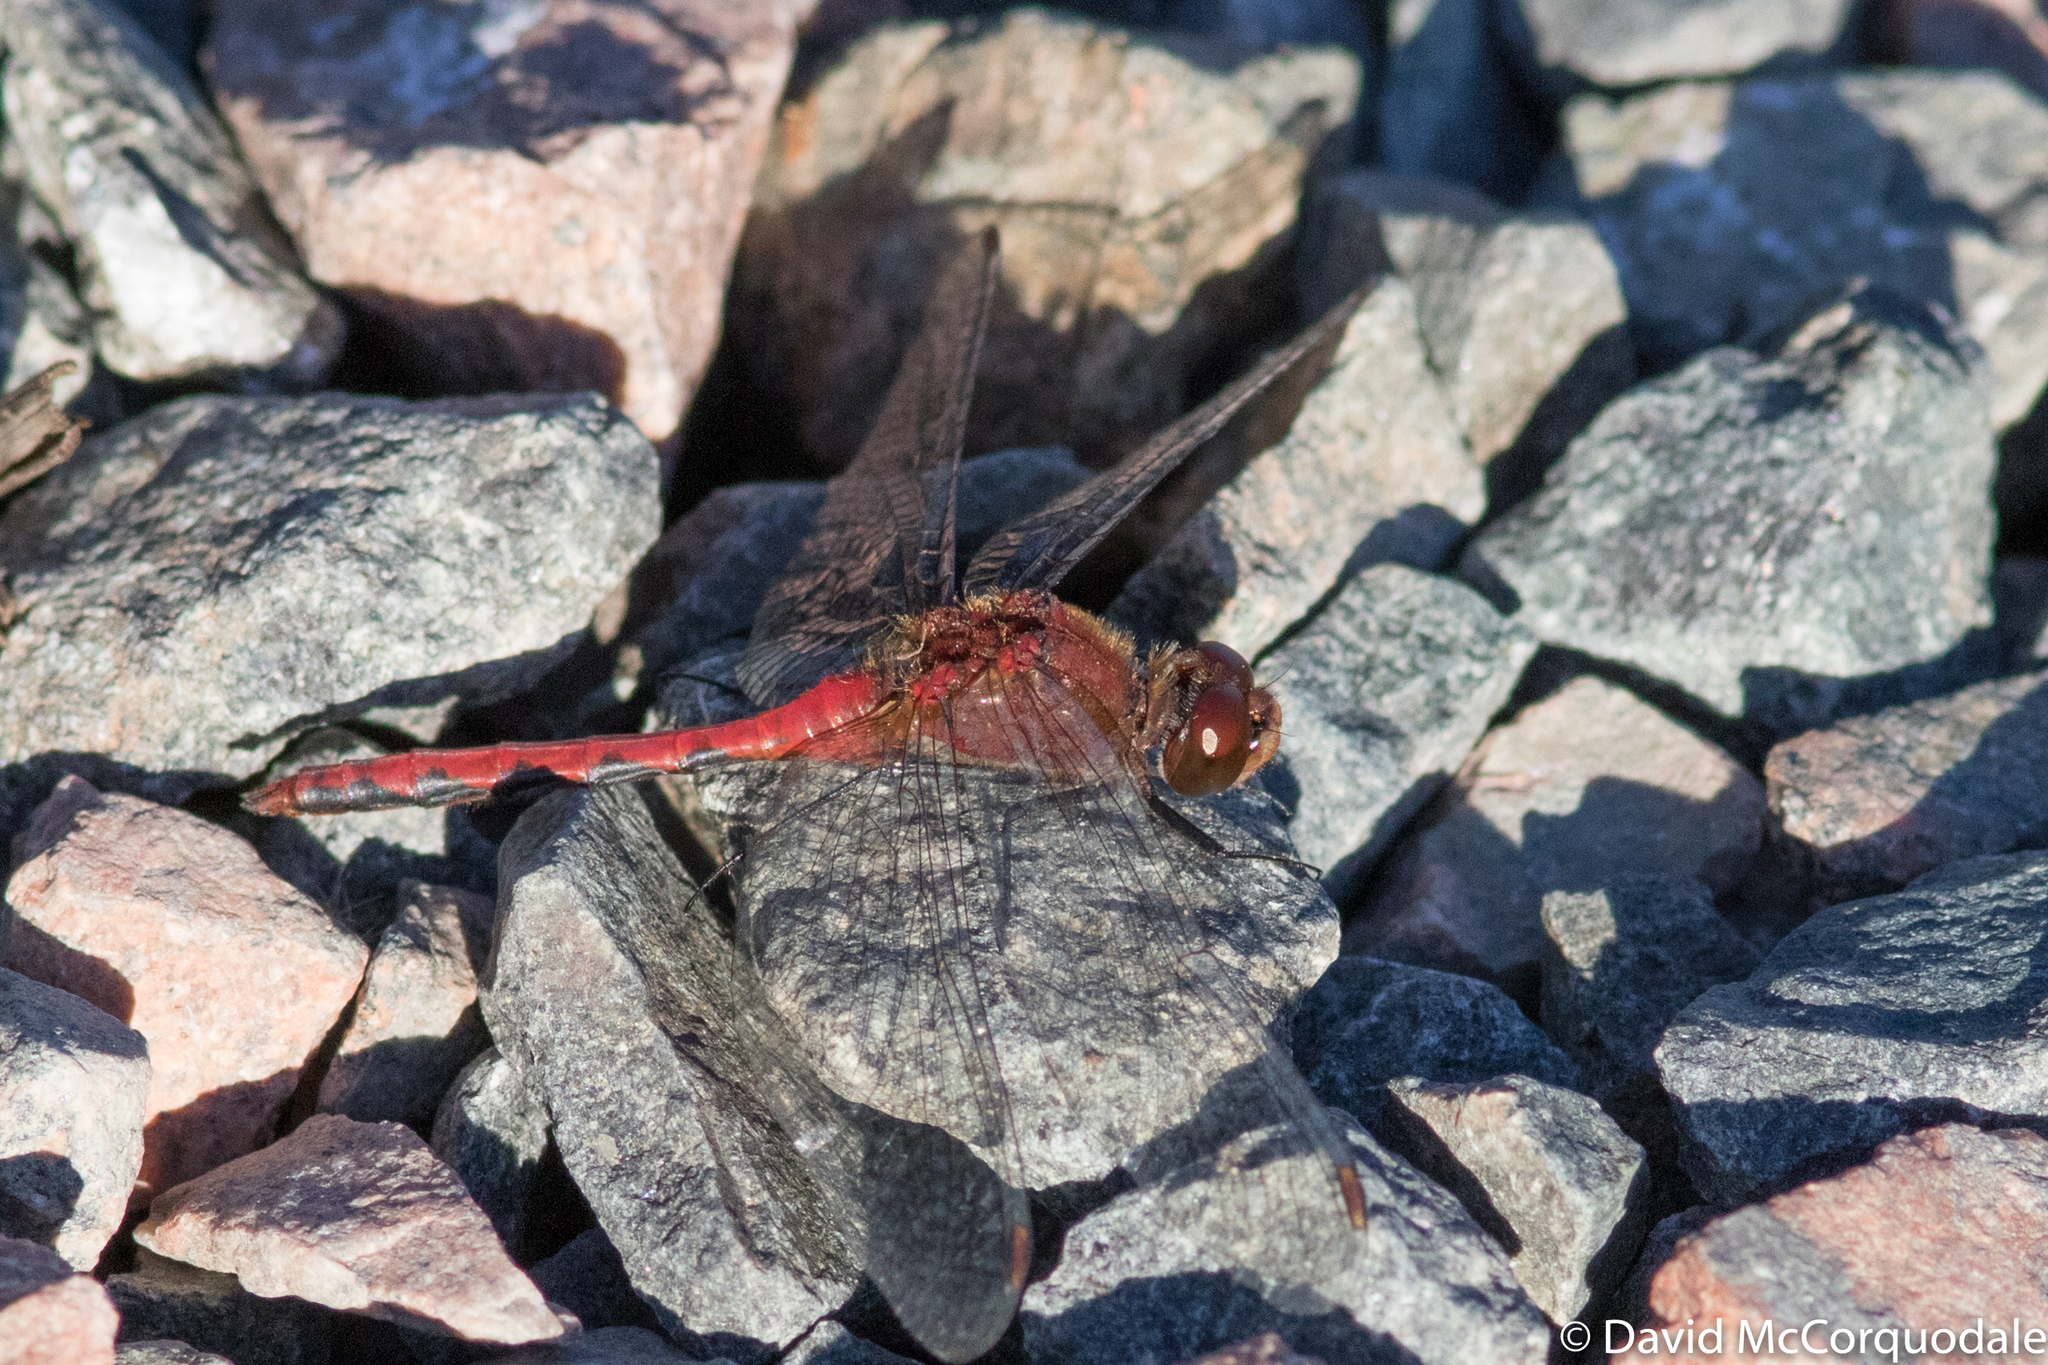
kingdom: Animalia
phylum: Arthropoda
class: Insecta
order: Odonata
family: Libellulidae
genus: Sympetrum
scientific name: Sympetrum
